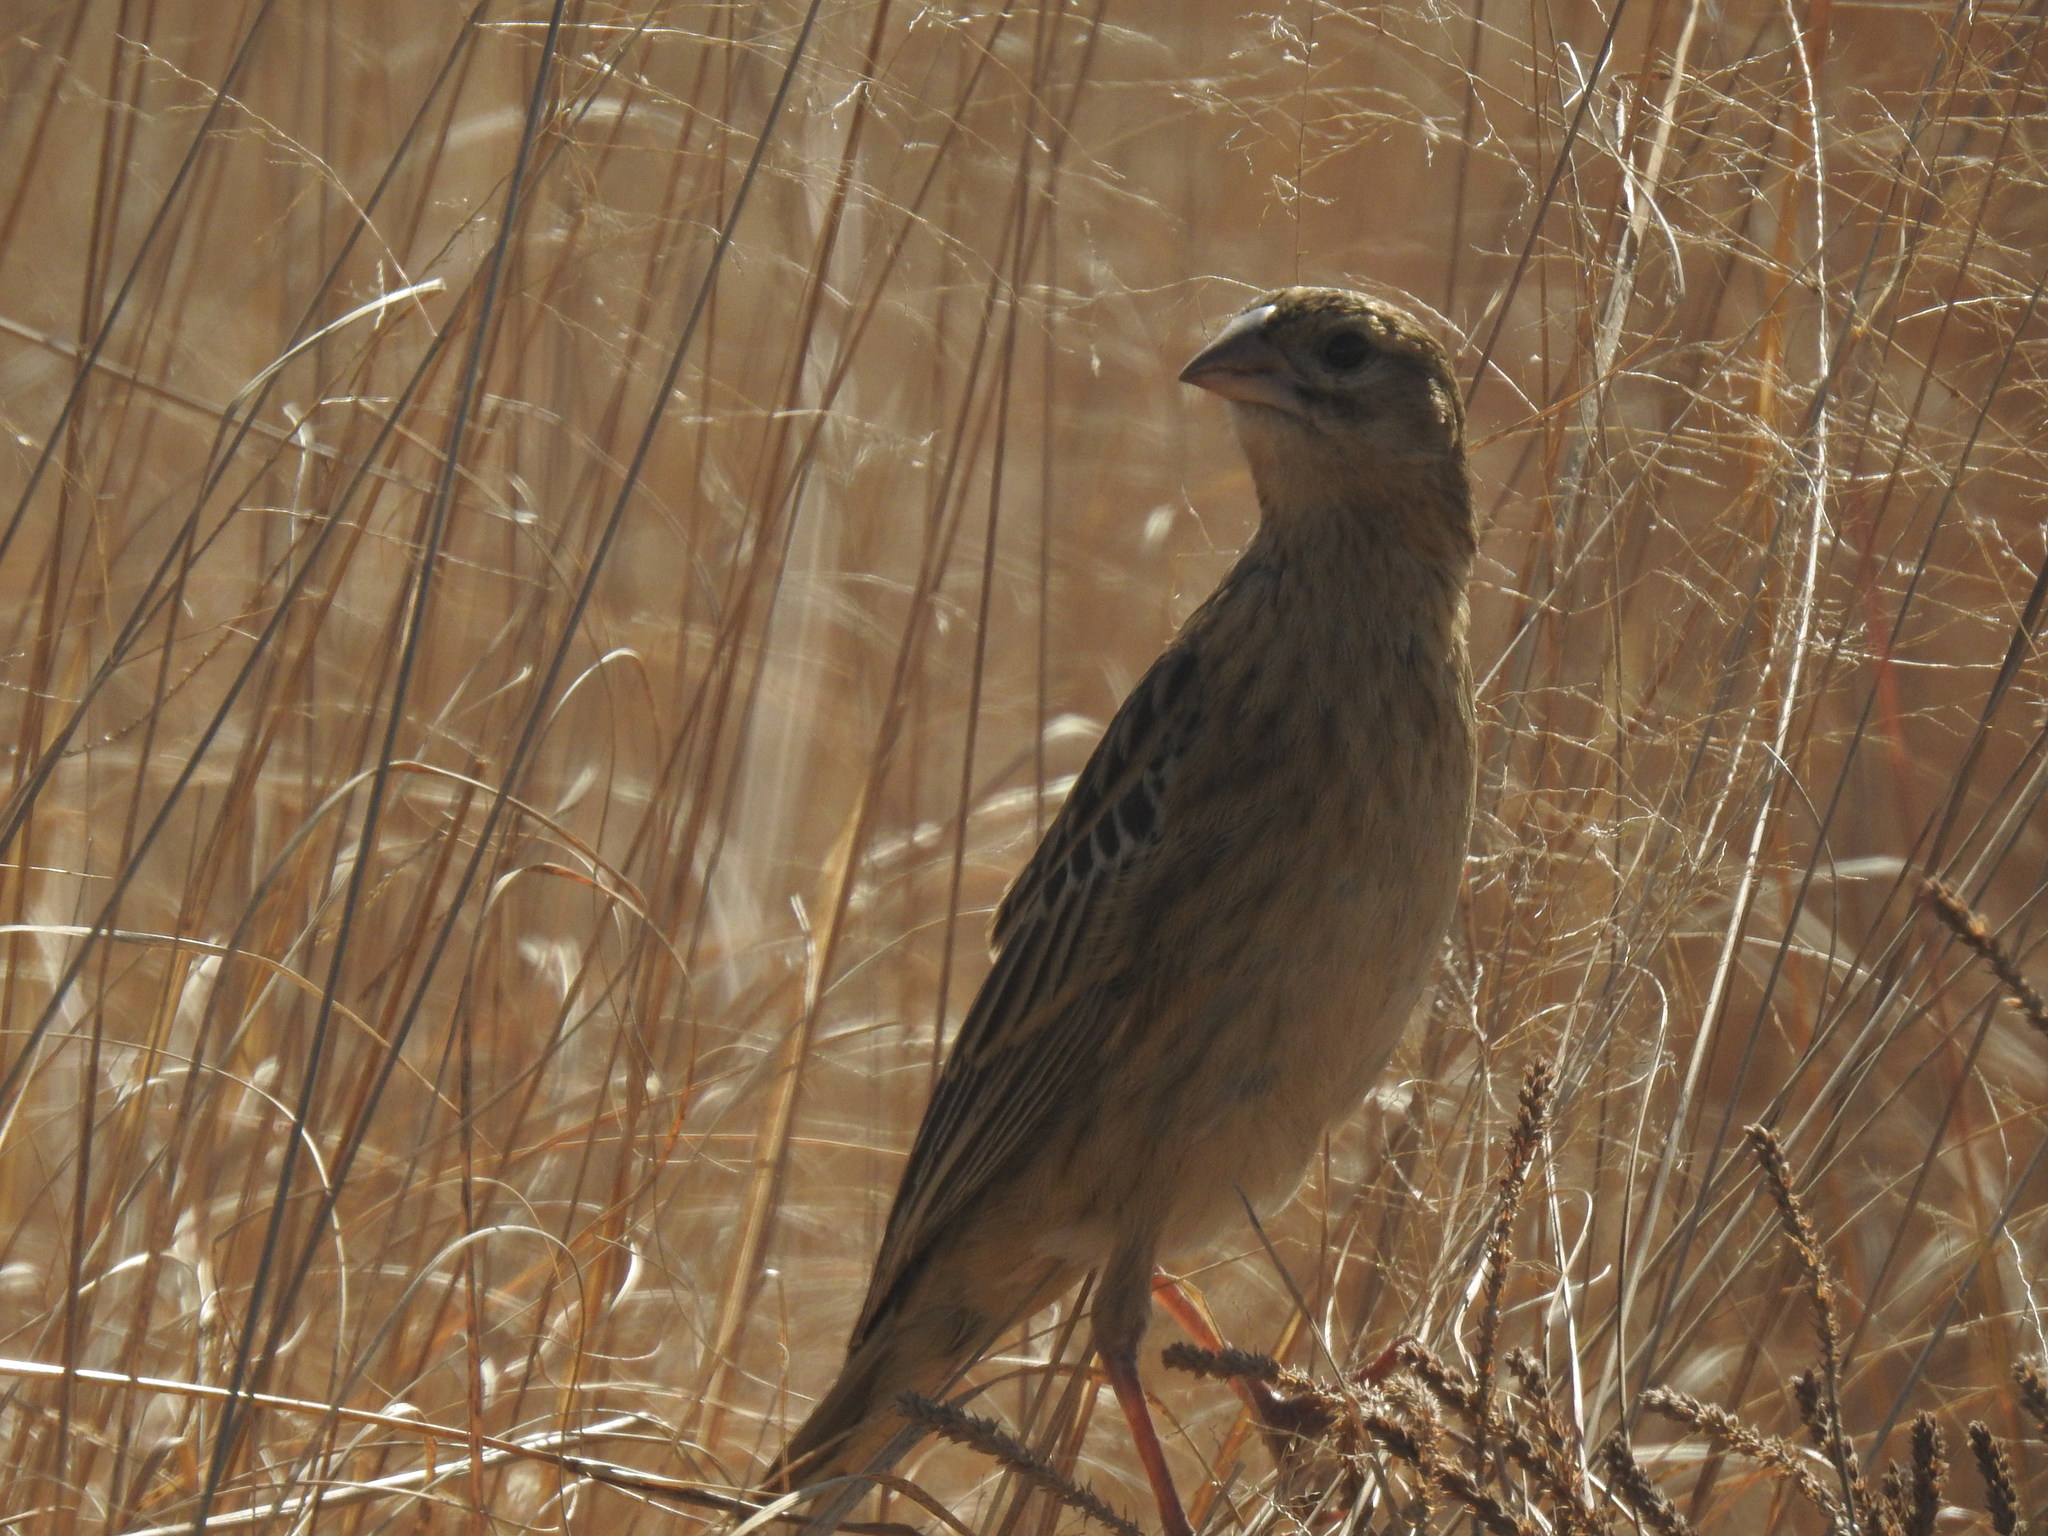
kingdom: Animalia
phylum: Chordata
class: Aves
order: Passeriformes
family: Ploceidae
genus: Euplectes
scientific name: Euplectes progne
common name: Long-tailed widowbird
